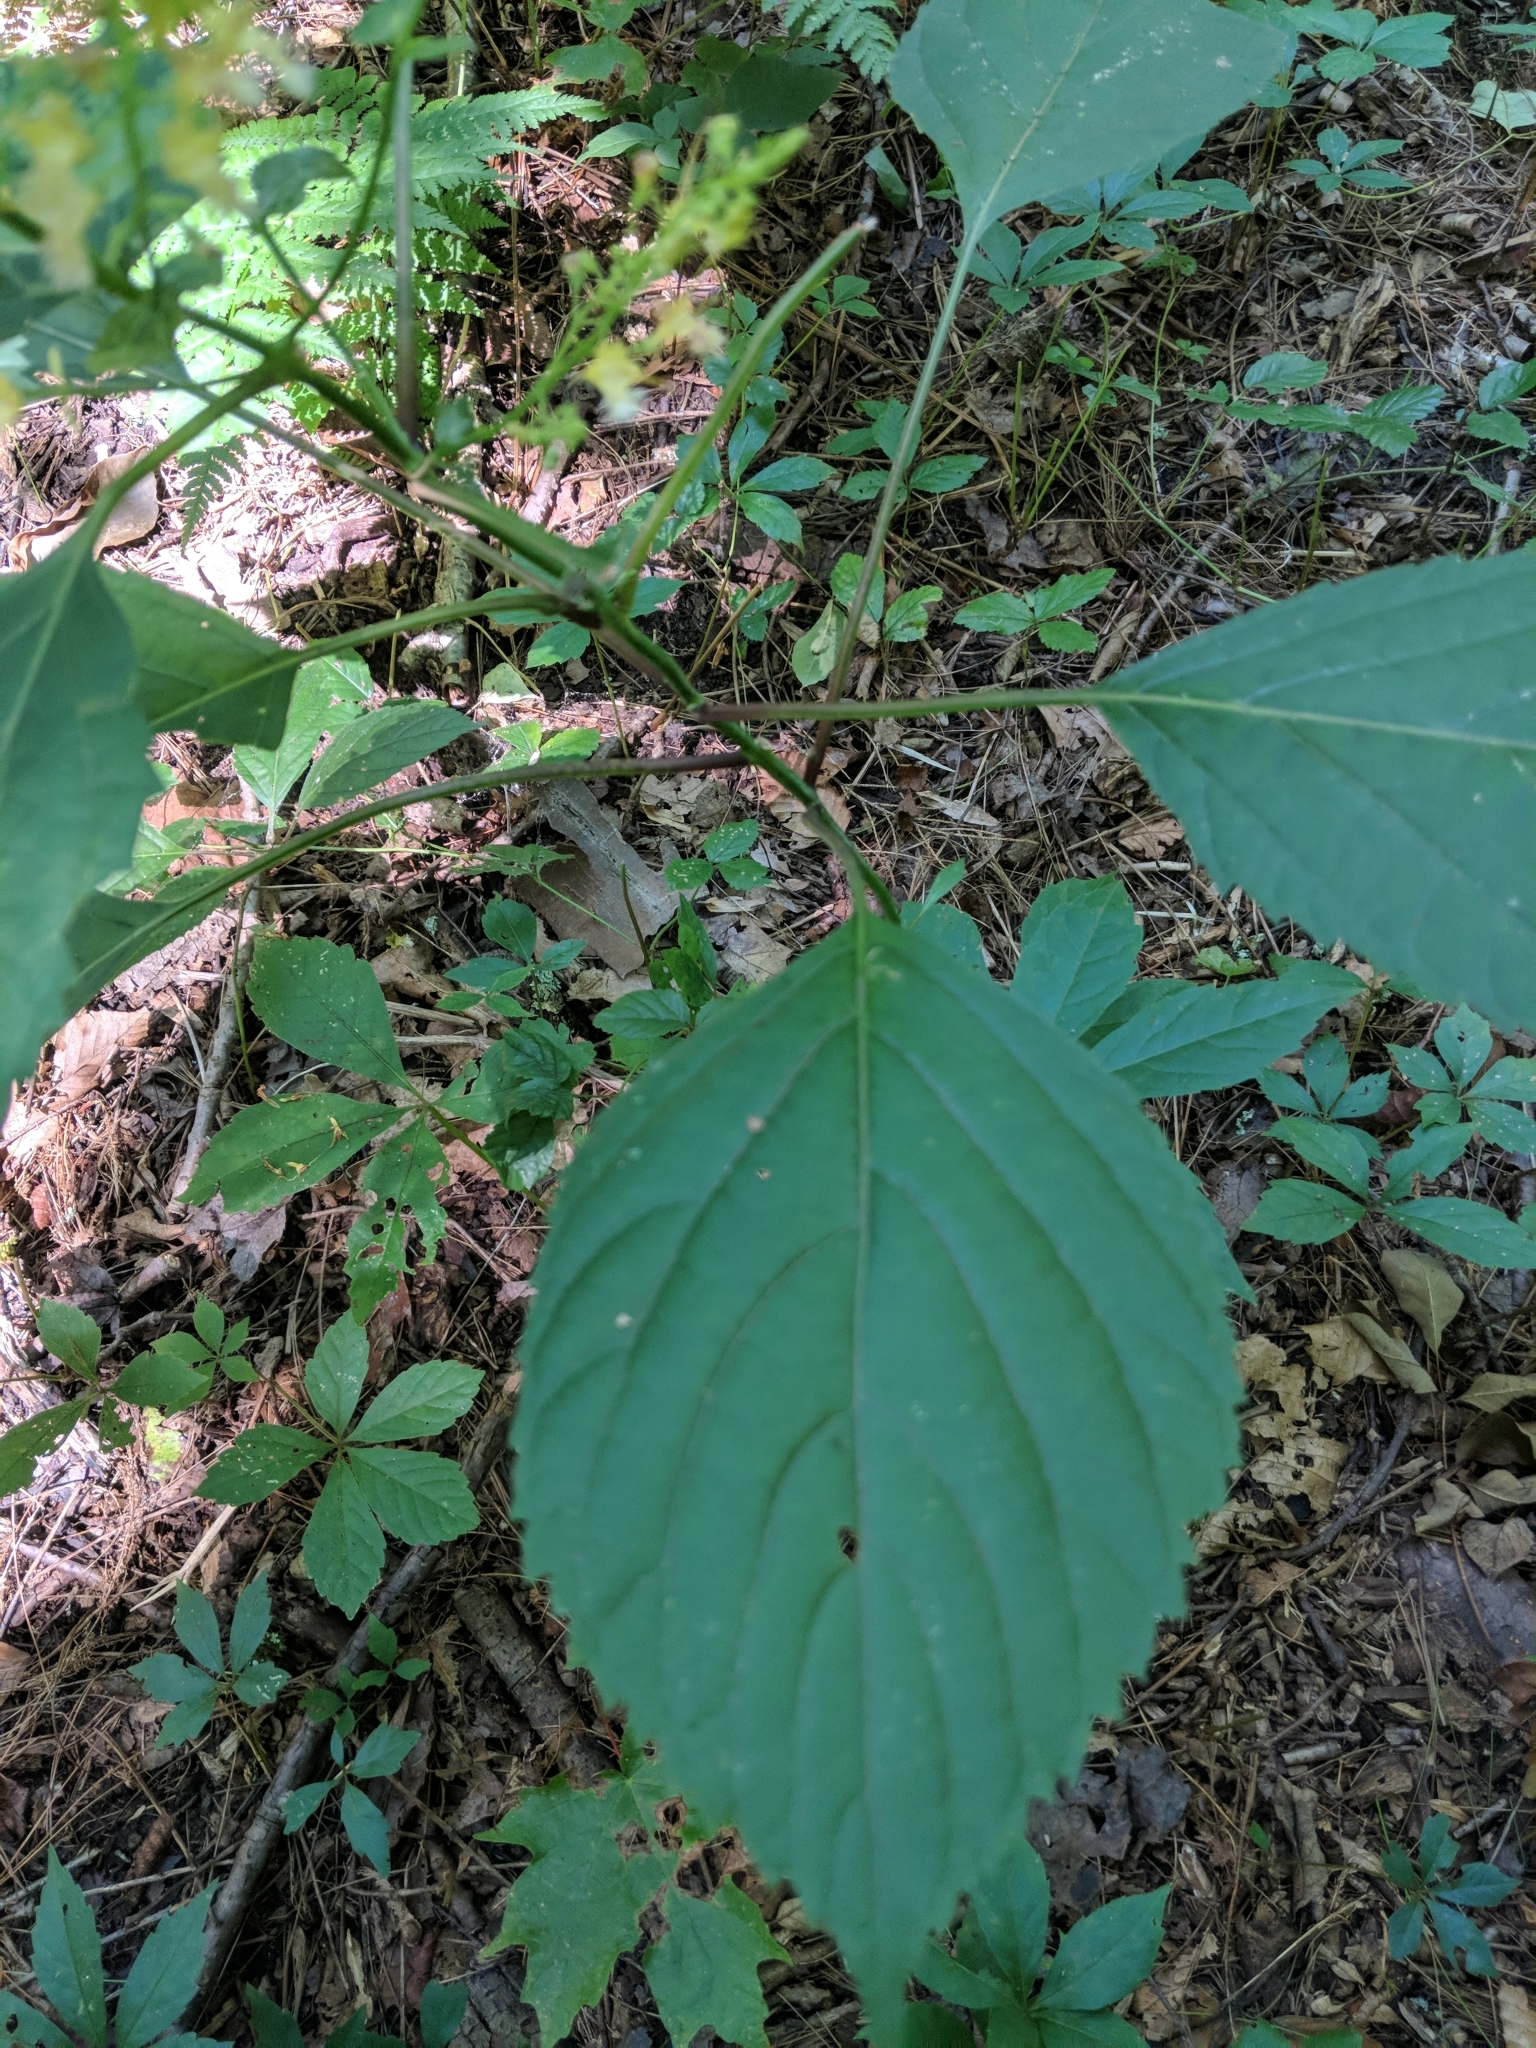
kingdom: Plantae
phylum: Tracheophyta
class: Magnoliopsida
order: Lamiales
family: Lamiaceae
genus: Collinsonia
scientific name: Collinsonia canadensis
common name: Northern horsebalm
